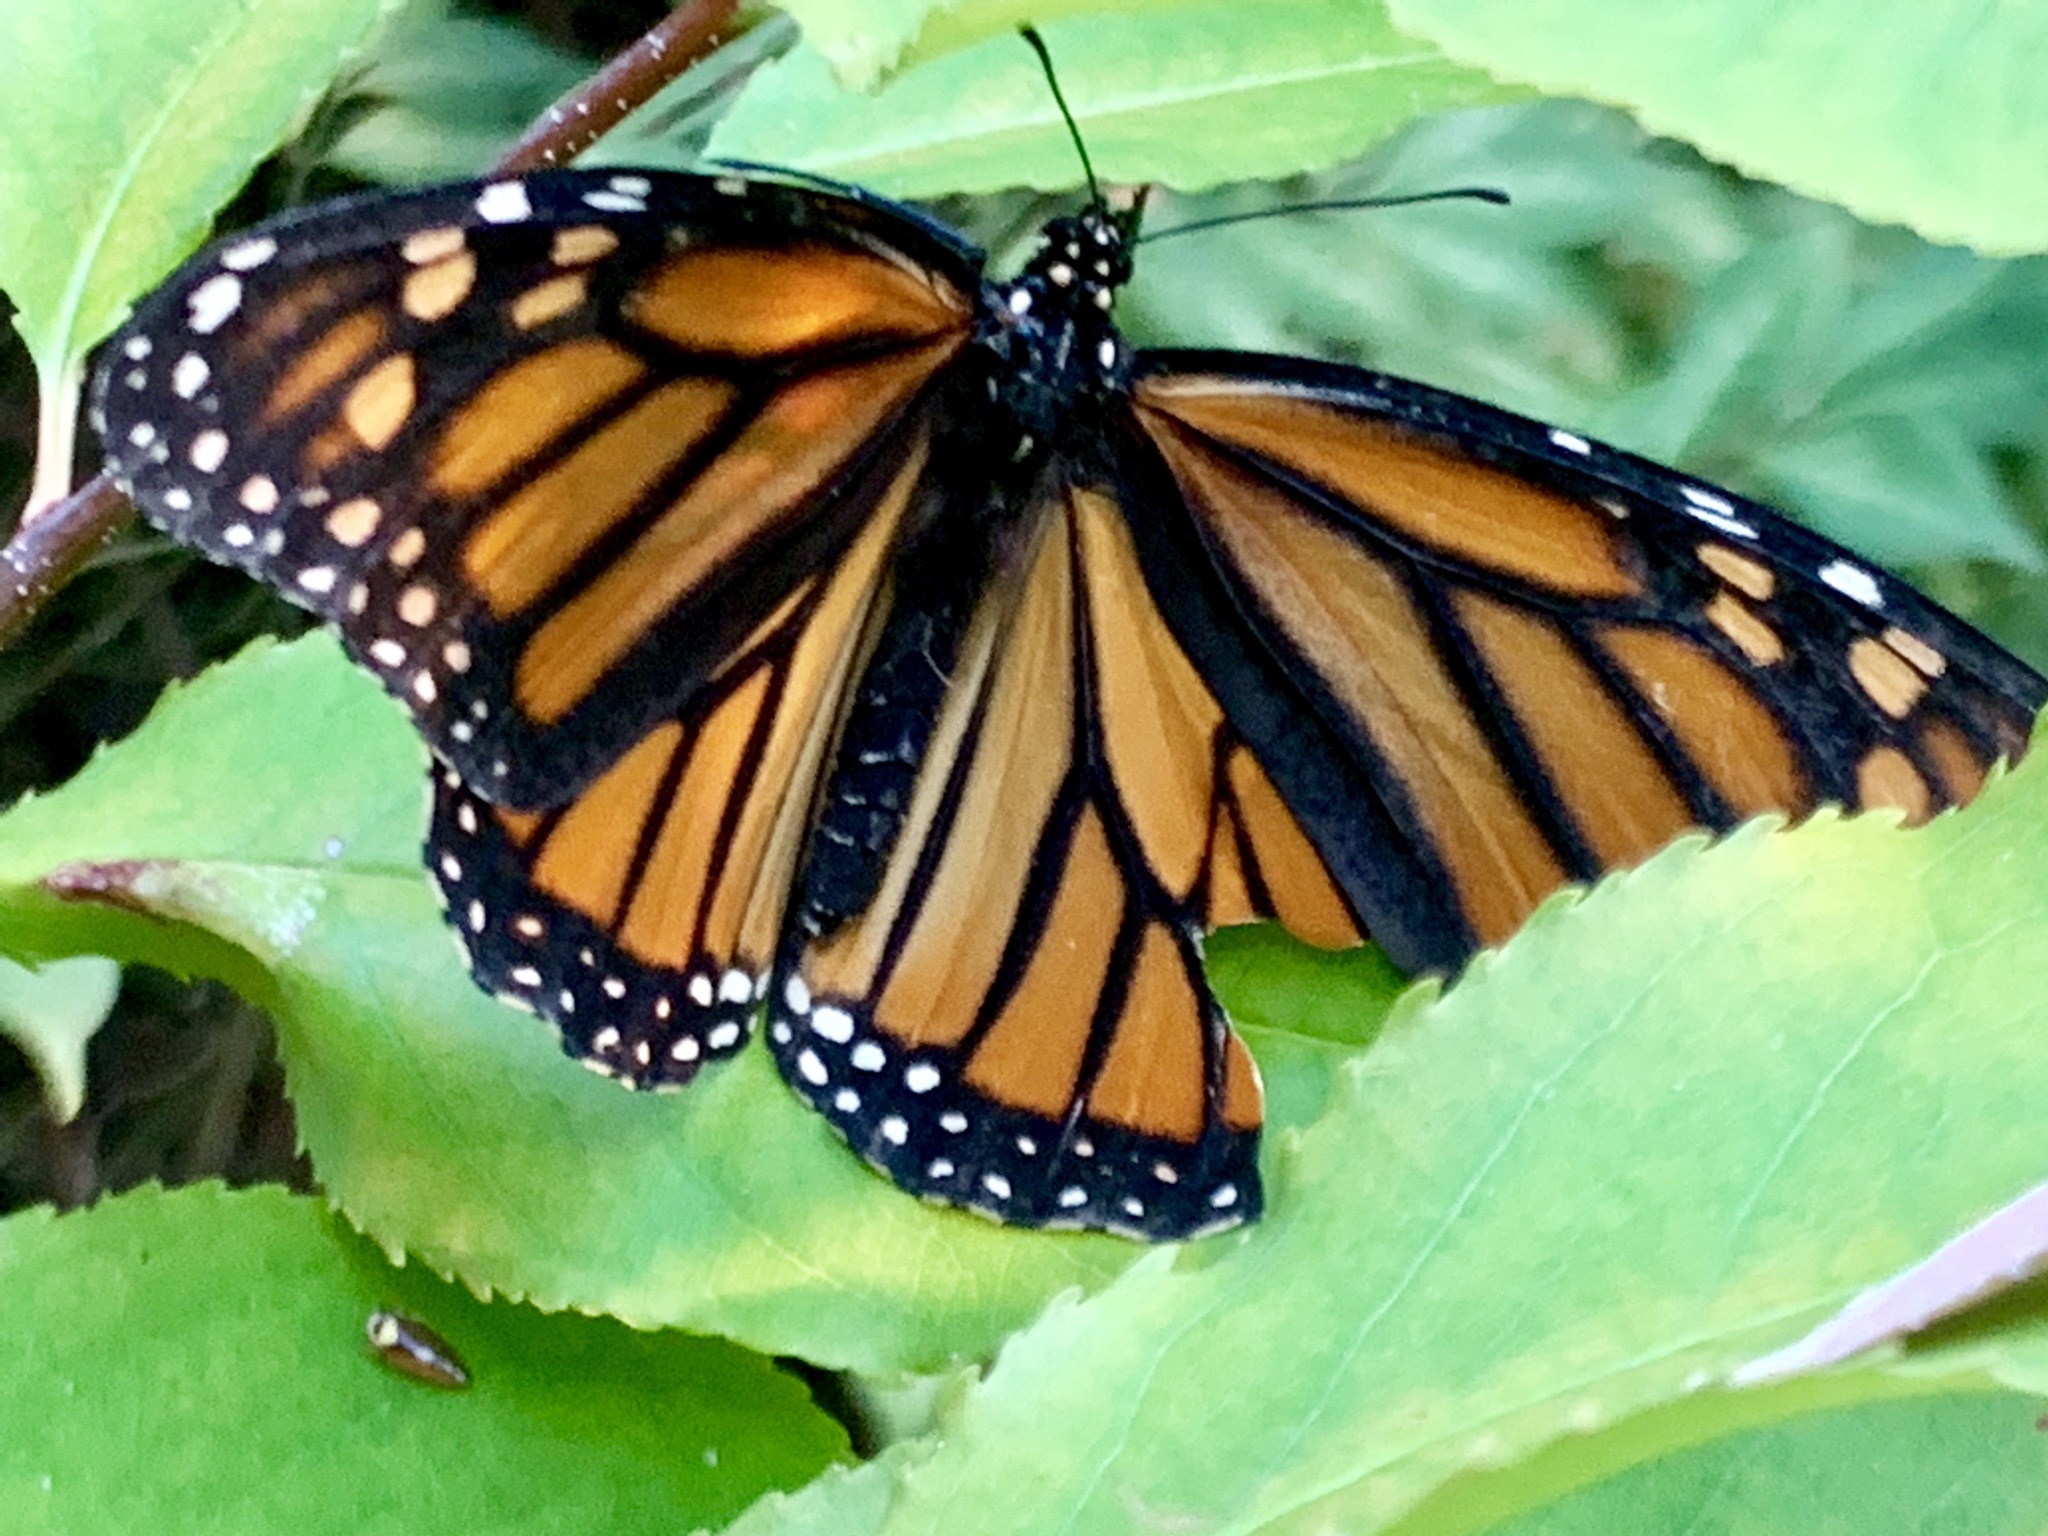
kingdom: Animalia
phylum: Arthropoda
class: Insecta
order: Lepidoptera
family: Nymphalidae
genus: Danaus
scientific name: Danaus plexippus
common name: Monarch
